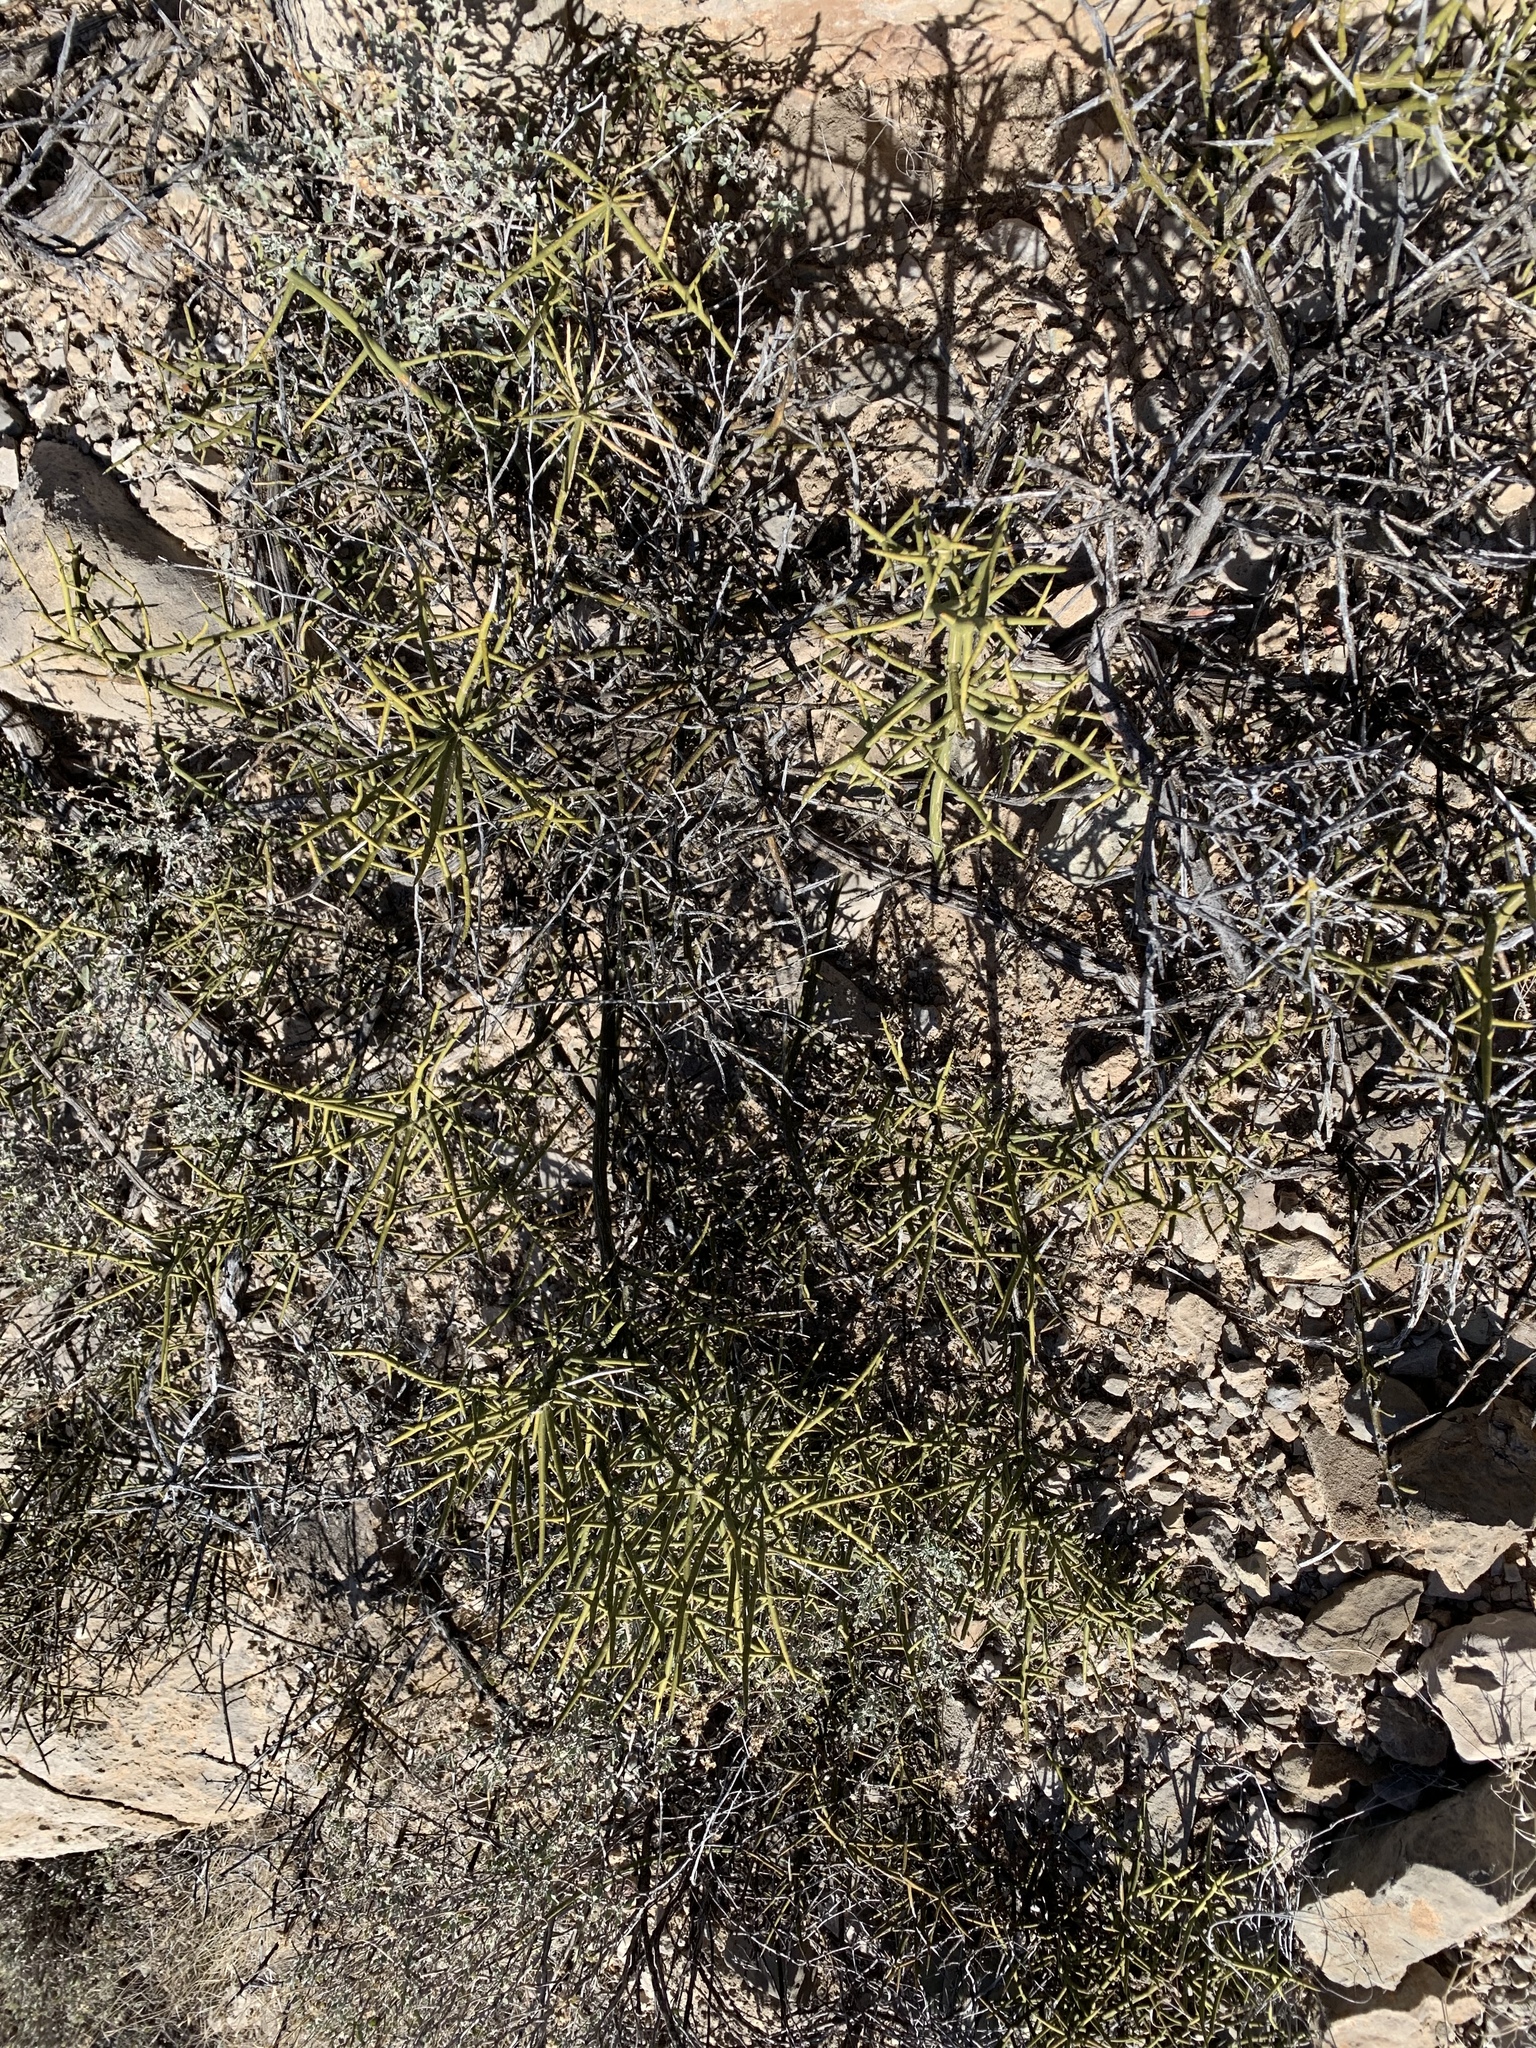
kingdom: Plantae
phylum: Tracheophyta
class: Magnoliopsida
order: Brassicales
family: Koeberliniaceae
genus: Koeberlinia
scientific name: Koeberlinia spinosa
